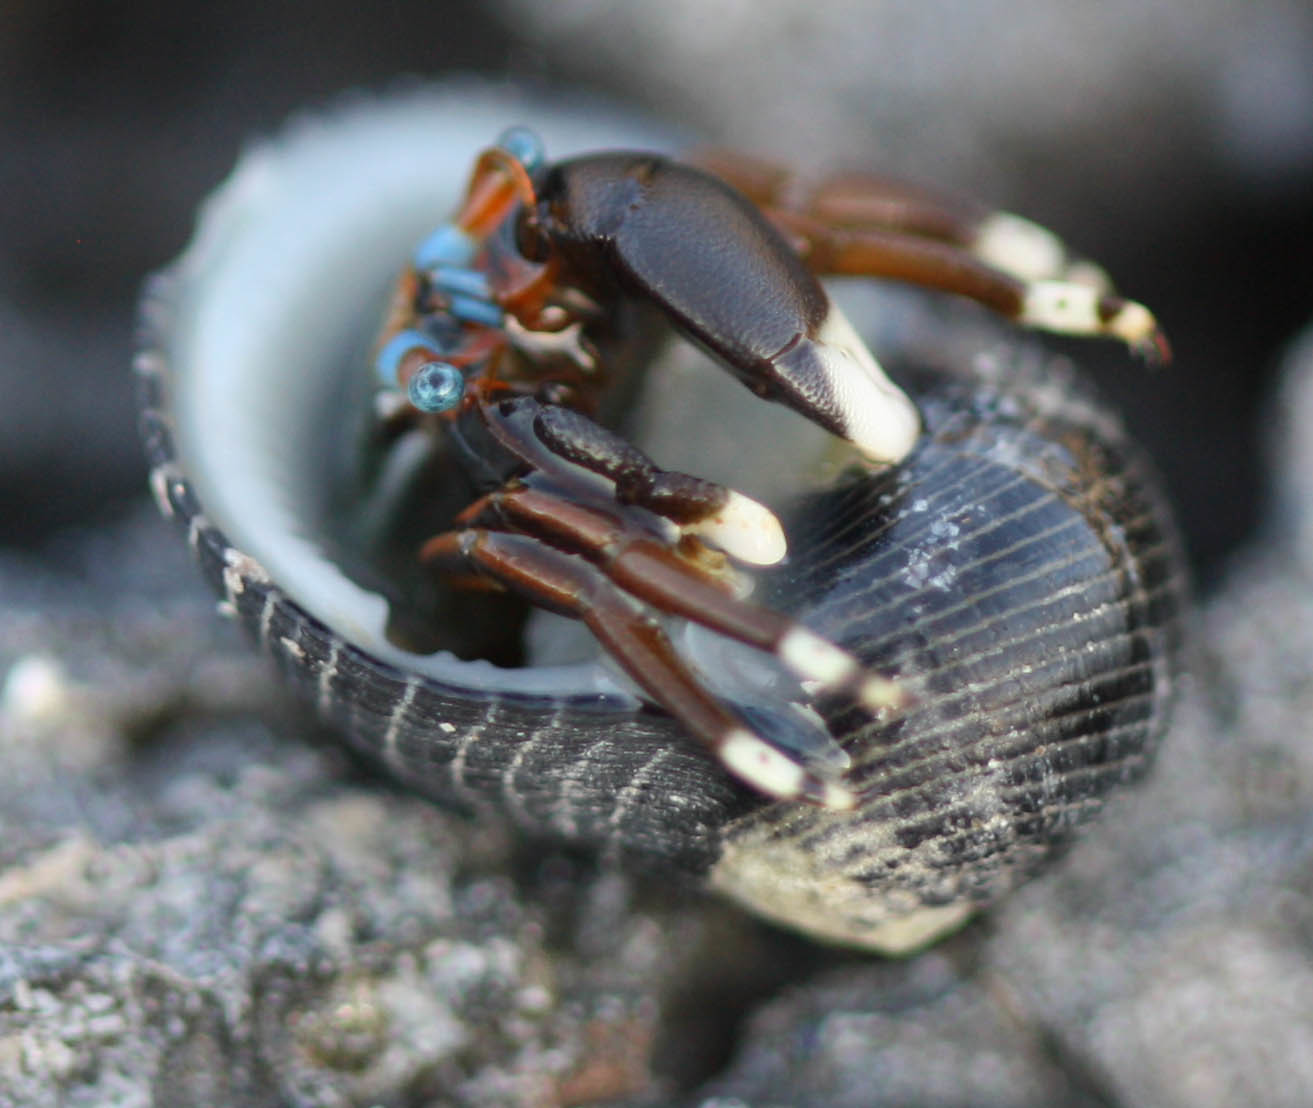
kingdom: Animalia
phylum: Arthropoda
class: Malacostraca
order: Decapoda
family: Diogenidae
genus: Calcinus
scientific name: Calcinus laevimanus
